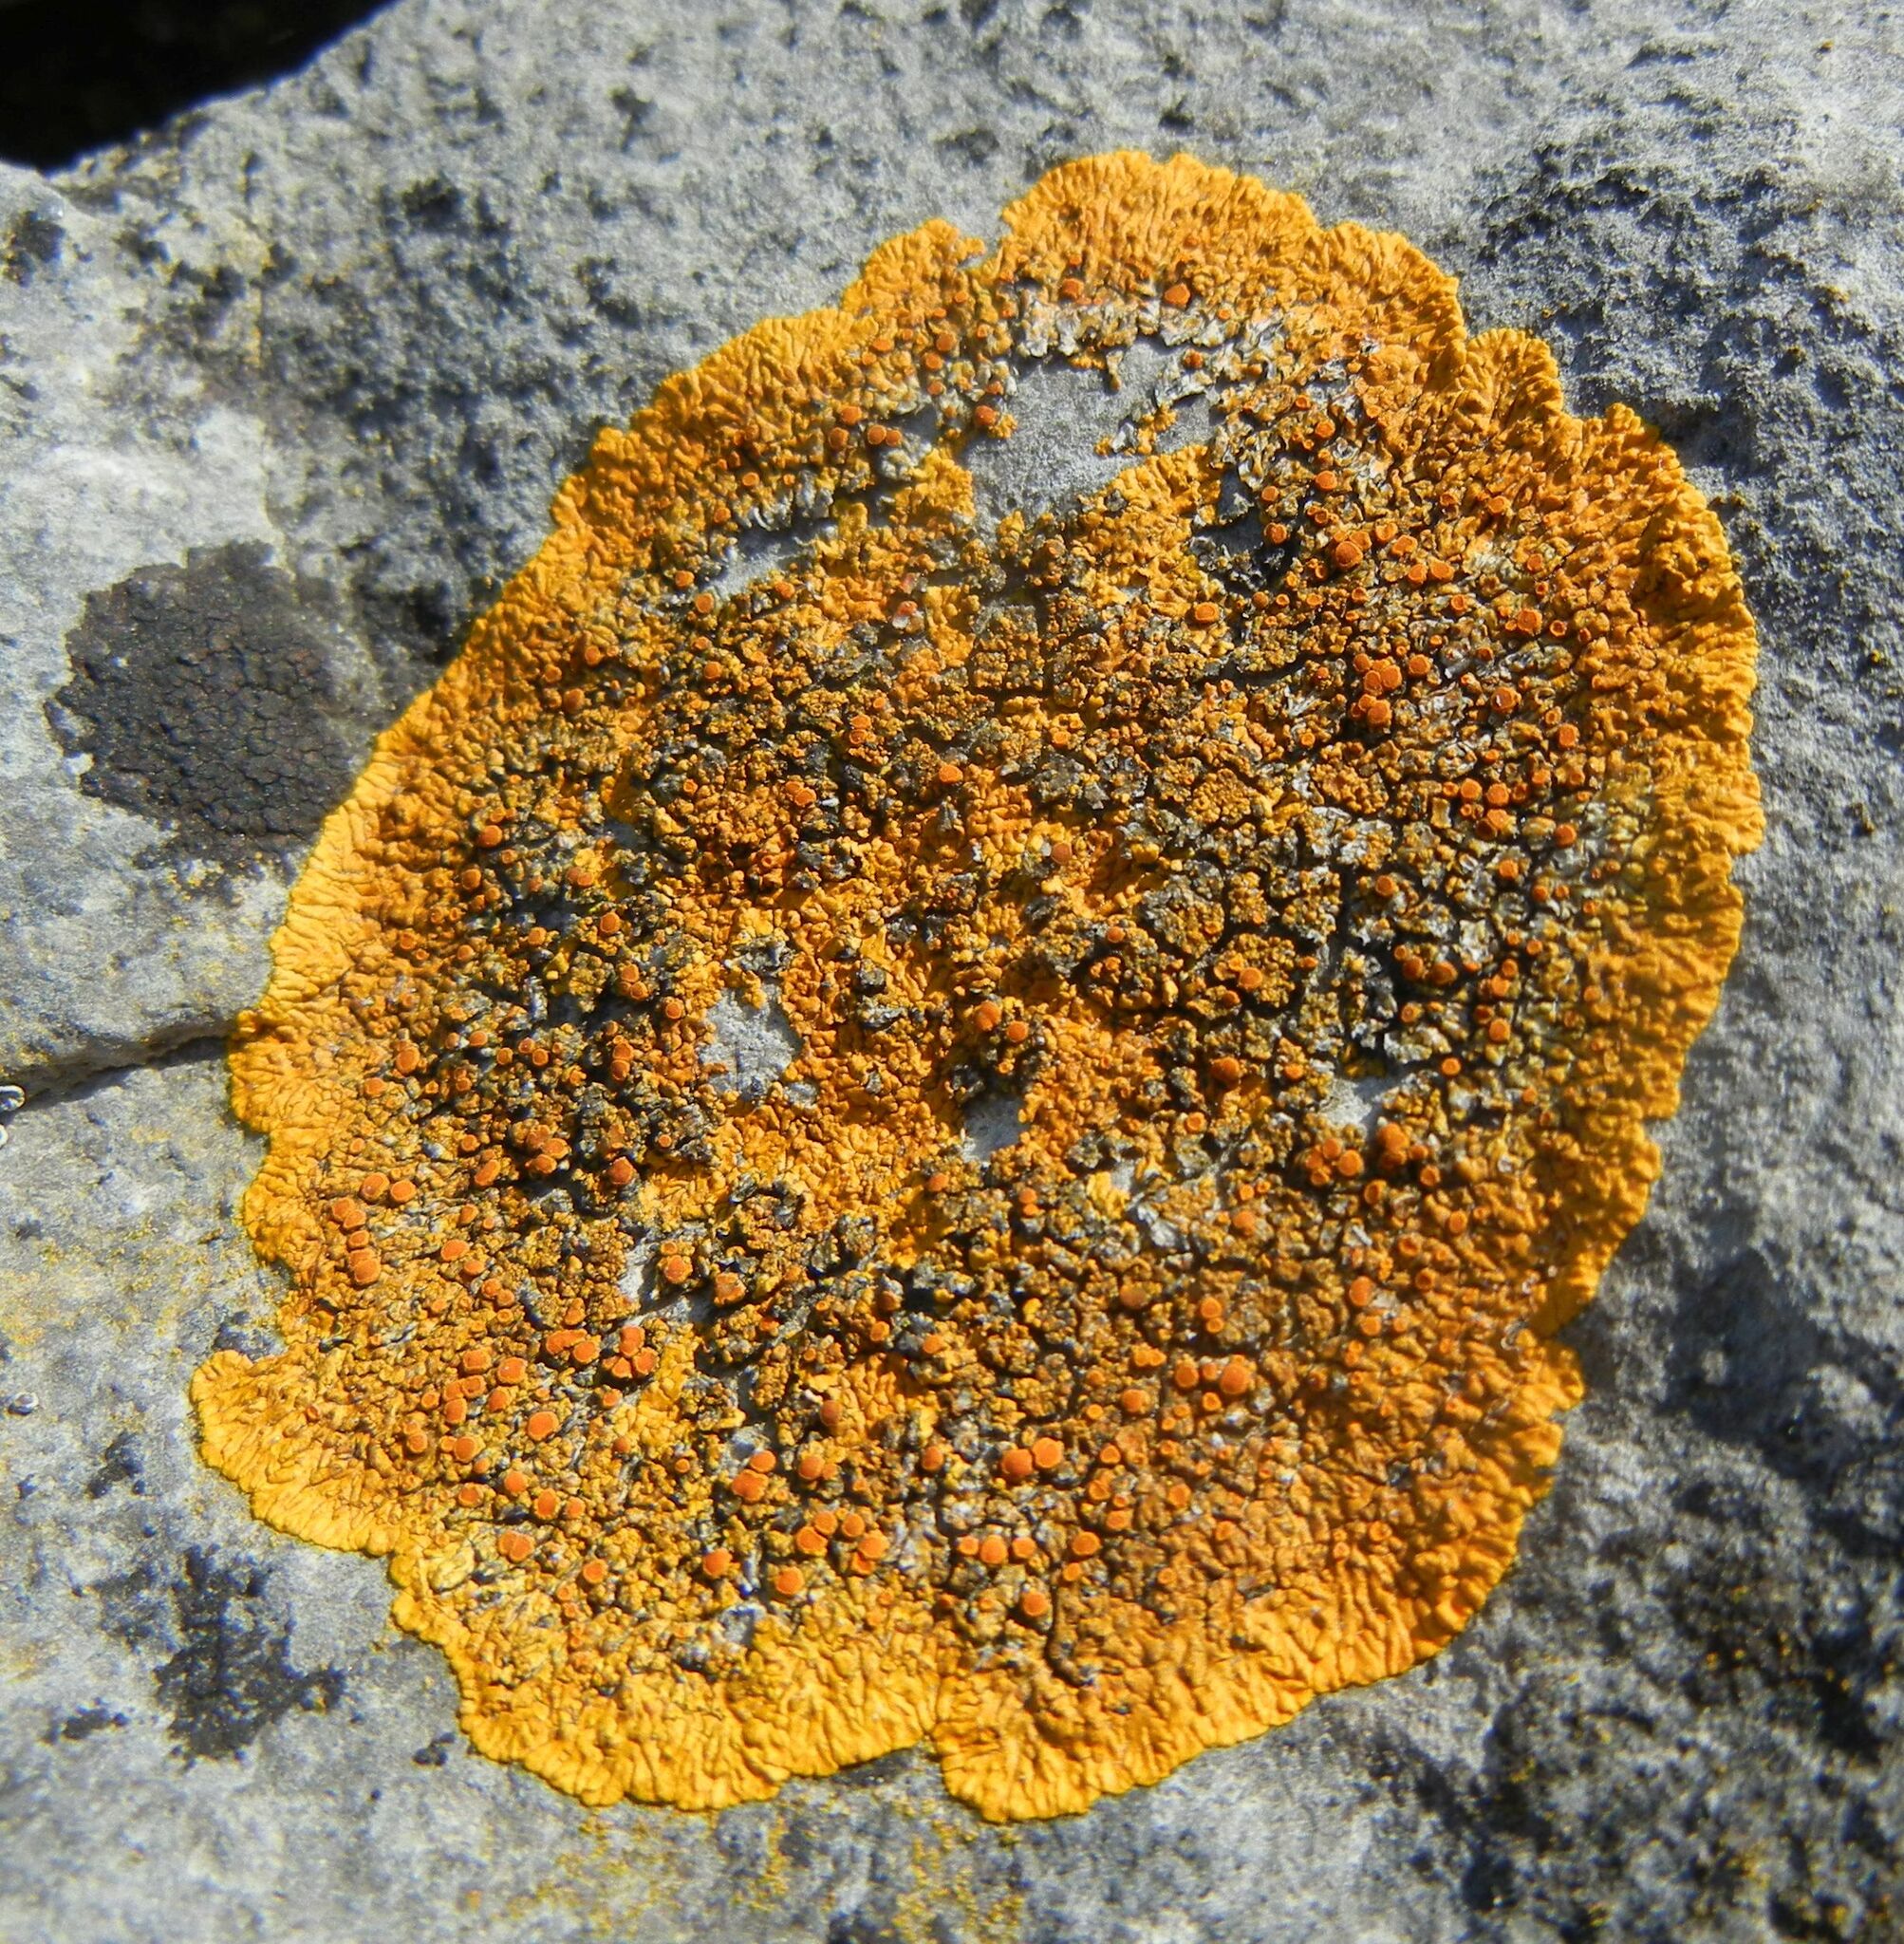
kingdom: Fungi
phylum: Ascomycota
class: Lecanoromycetes
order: Teloschistales
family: Teloschistaceae
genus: Variospora
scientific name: Variospora flavescens
